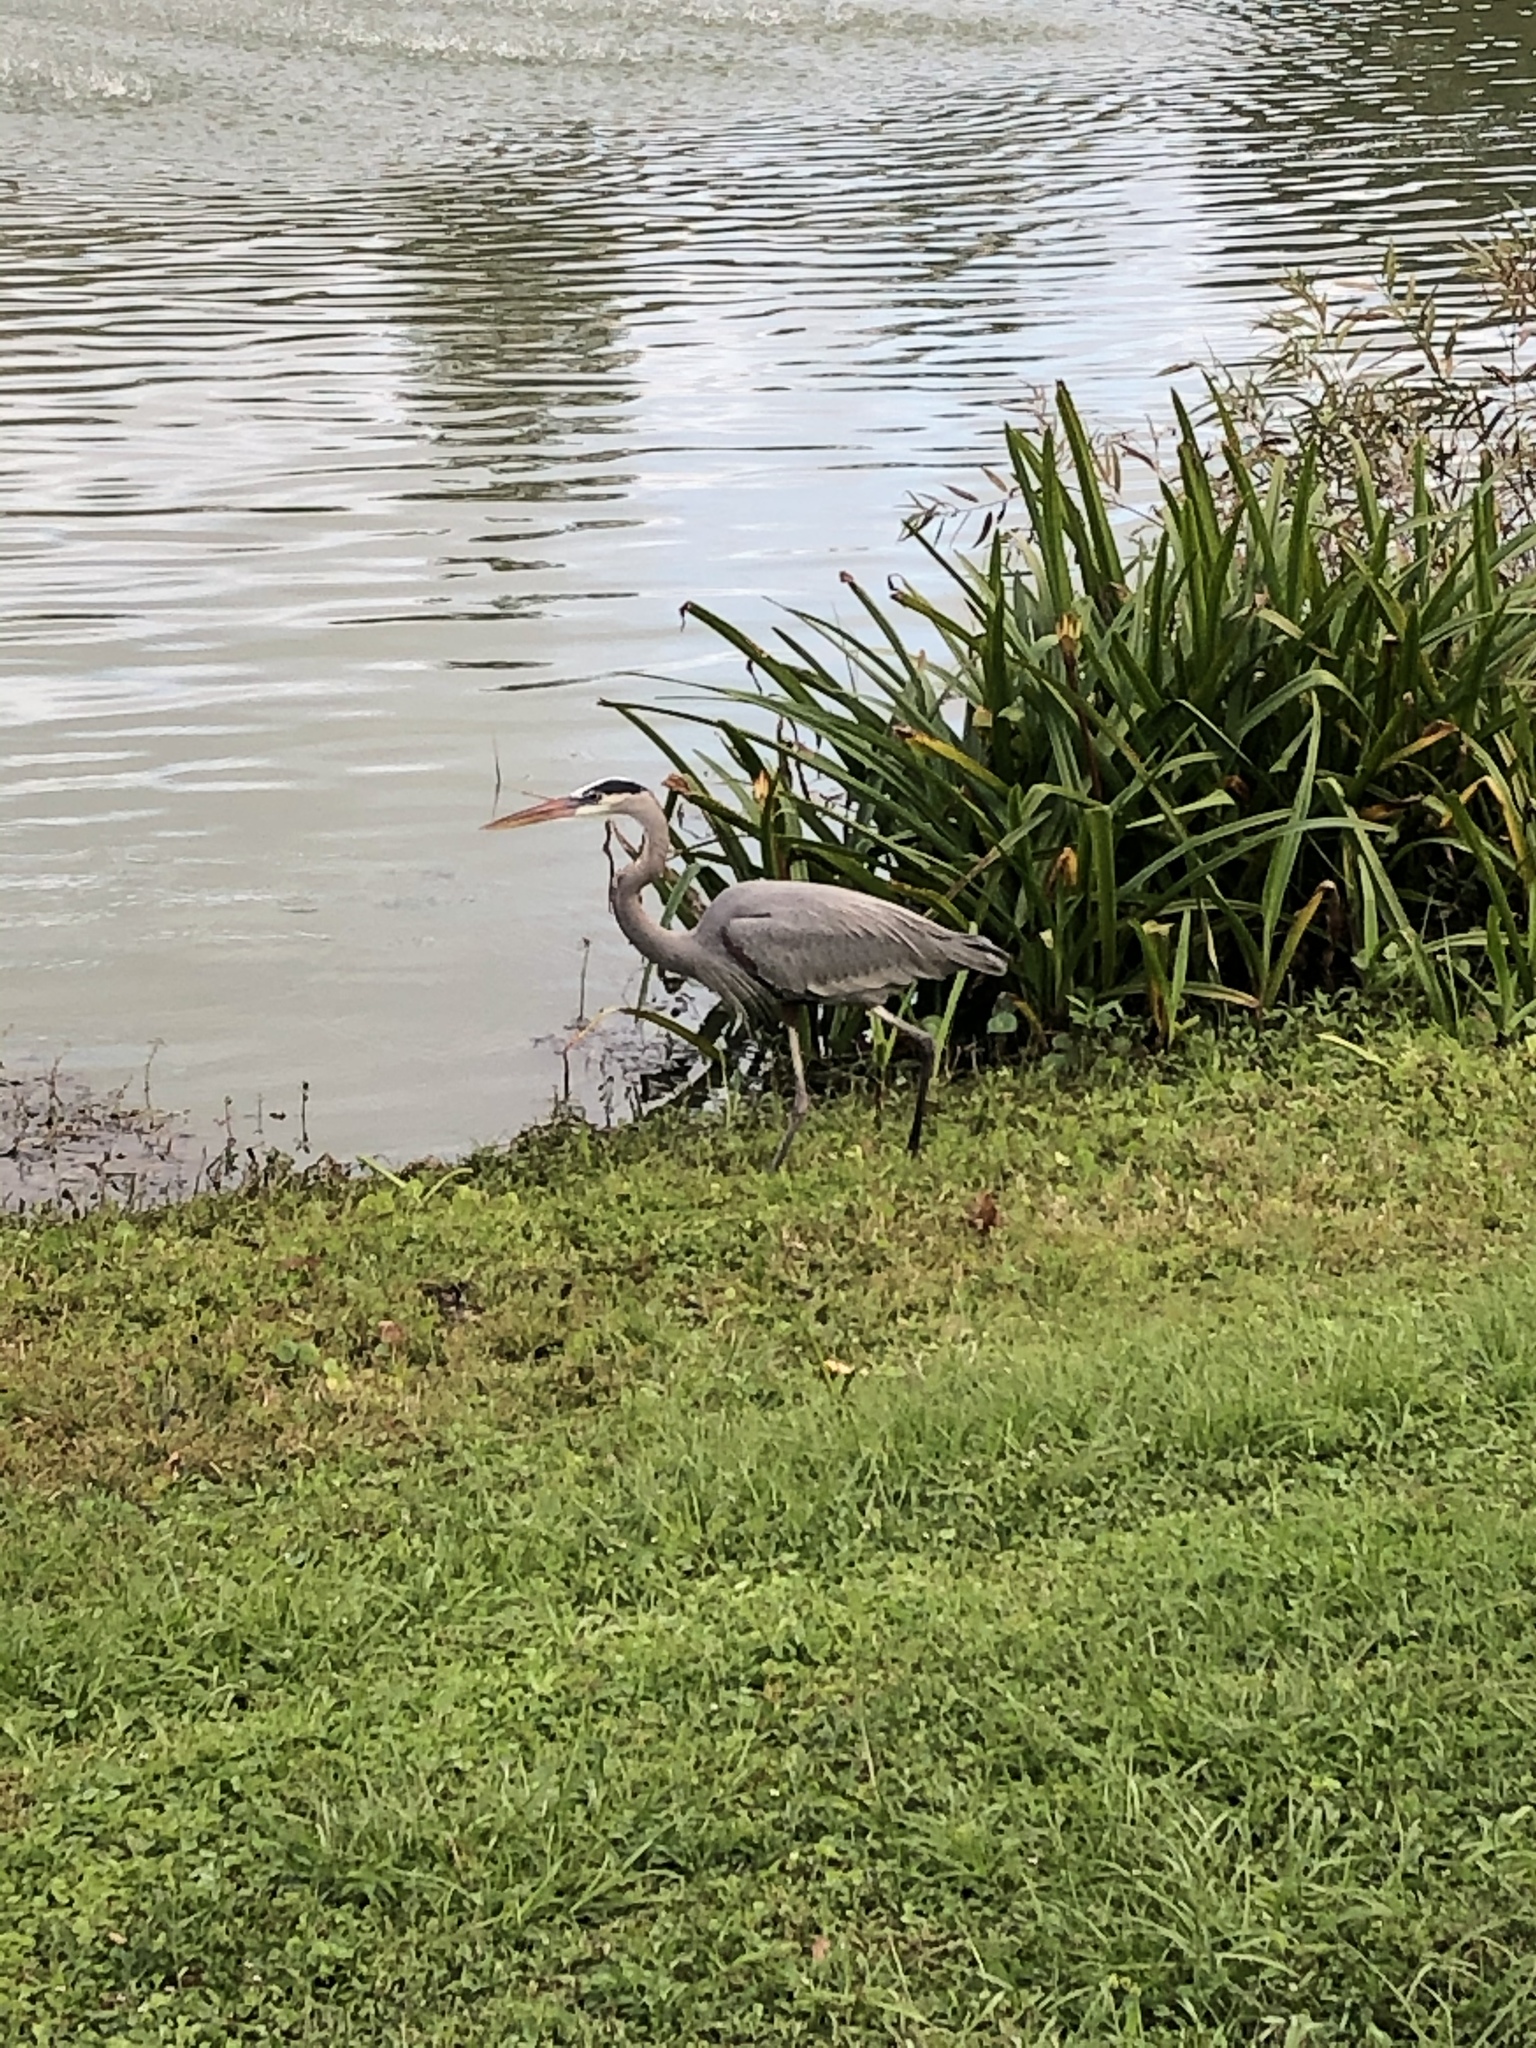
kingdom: Animalia
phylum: Chordata
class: Aves
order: Pelecaniformes
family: Ardeidae
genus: Ardea
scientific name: Ardea herodias
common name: Great blue heron
